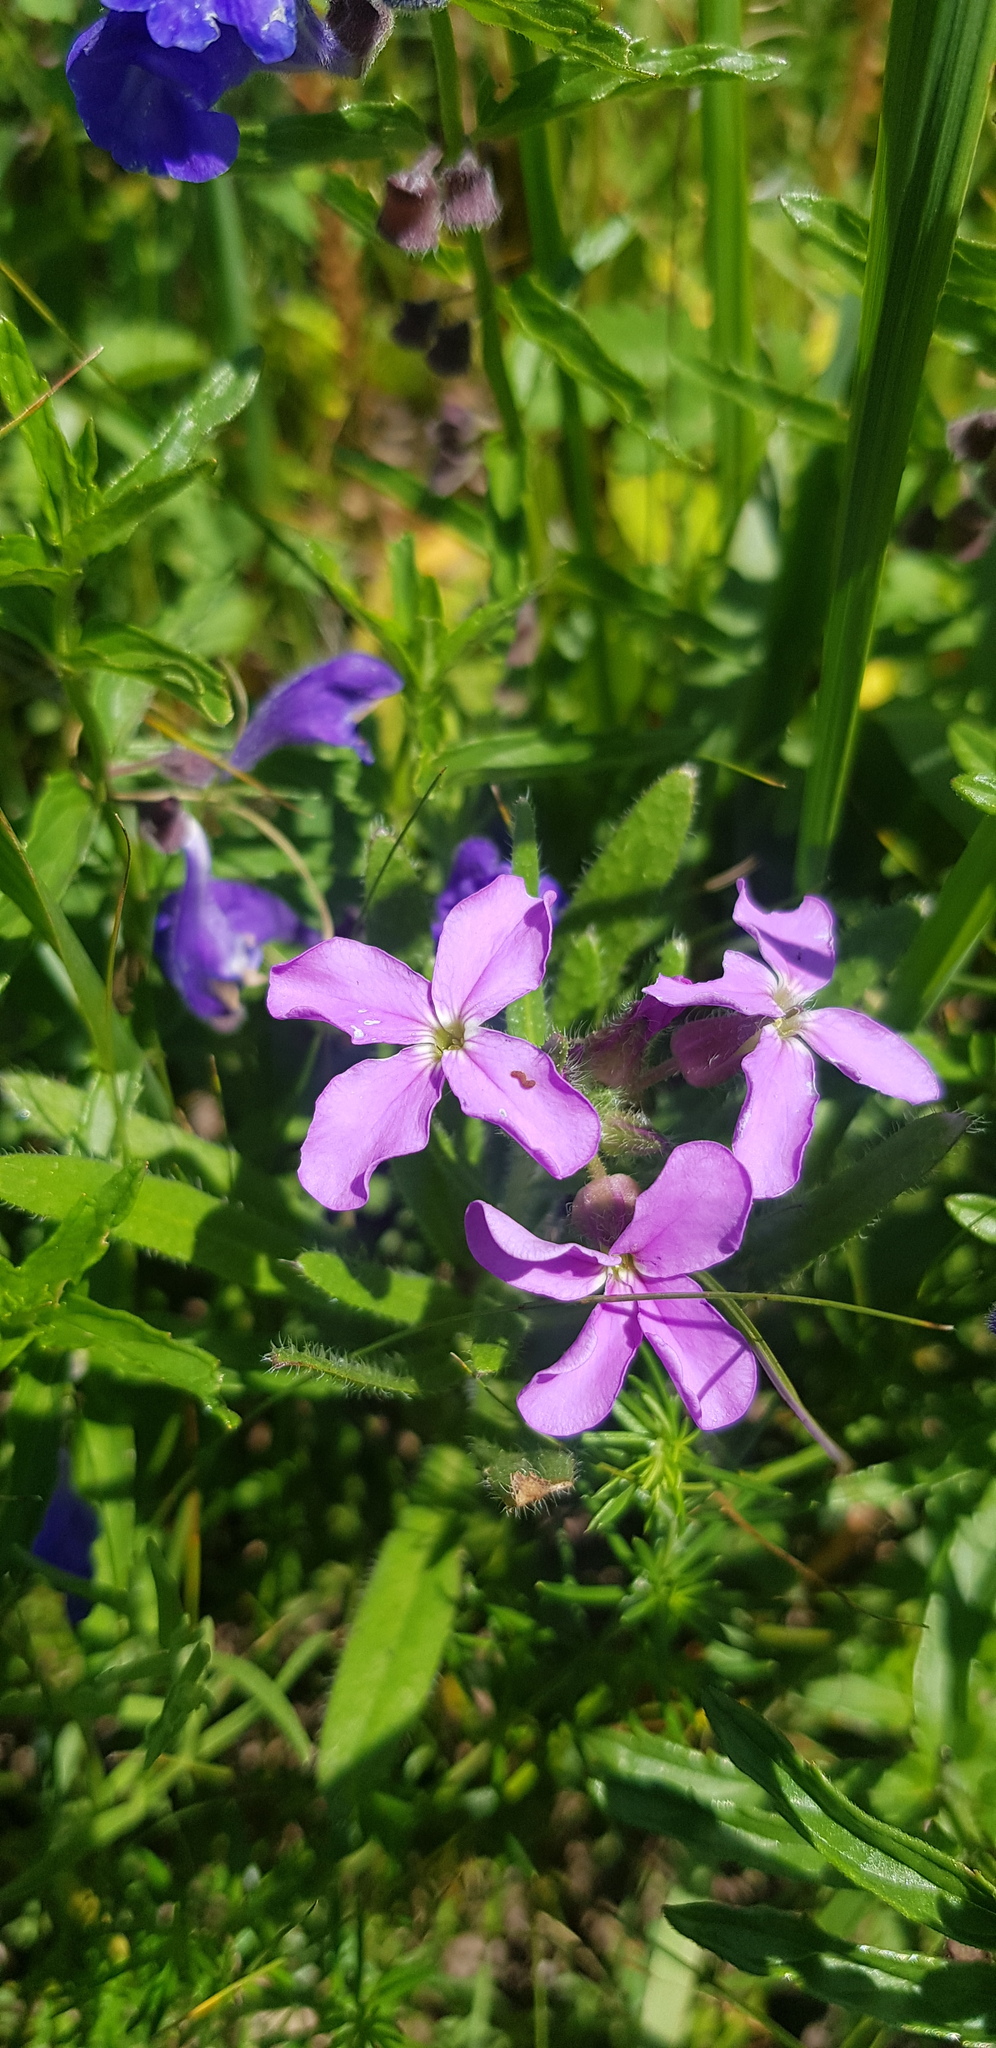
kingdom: Plantae
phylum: Tracheophyta
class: Magnoliopsida
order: Brassicales
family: Brassicaceae
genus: Clausia
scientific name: Clausia aprica
